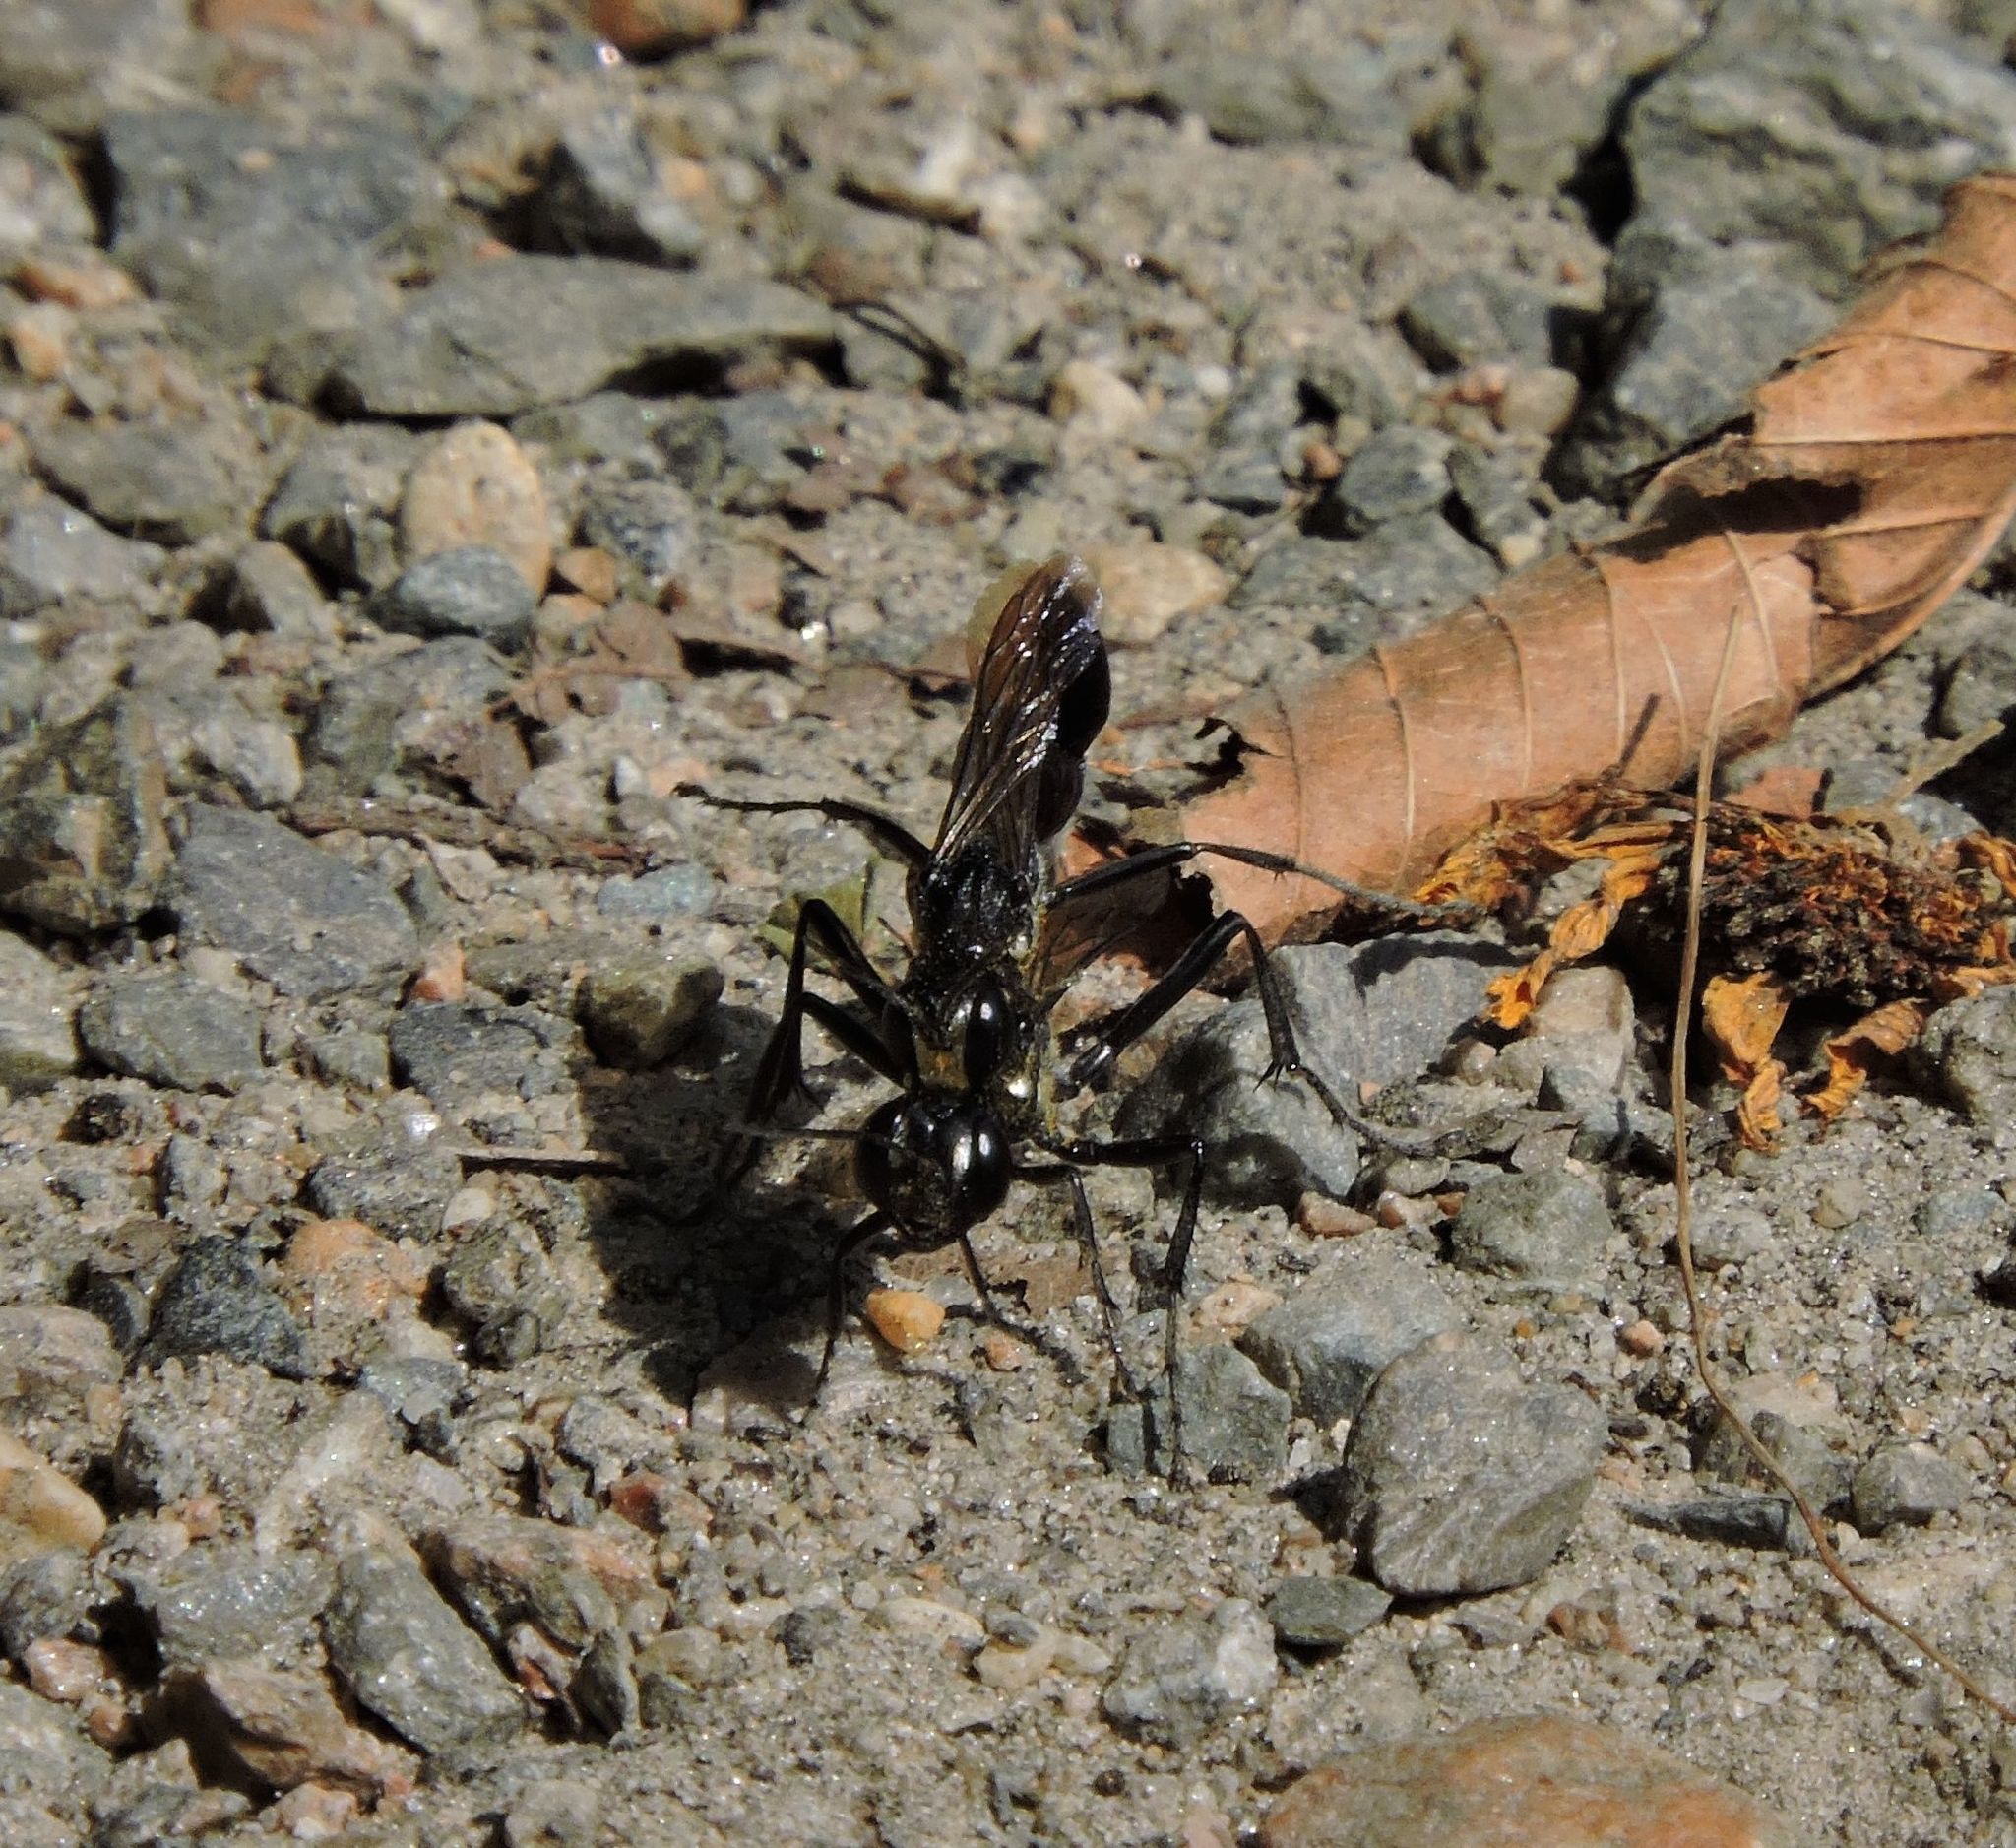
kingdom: Animalia
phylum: Arthropoda
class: Insecta
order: Hymenoptera
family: Sphecidae
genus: Eremnophila
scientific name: Eremnophila aureonotata
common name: Gold-marked thread-waisted wasp
